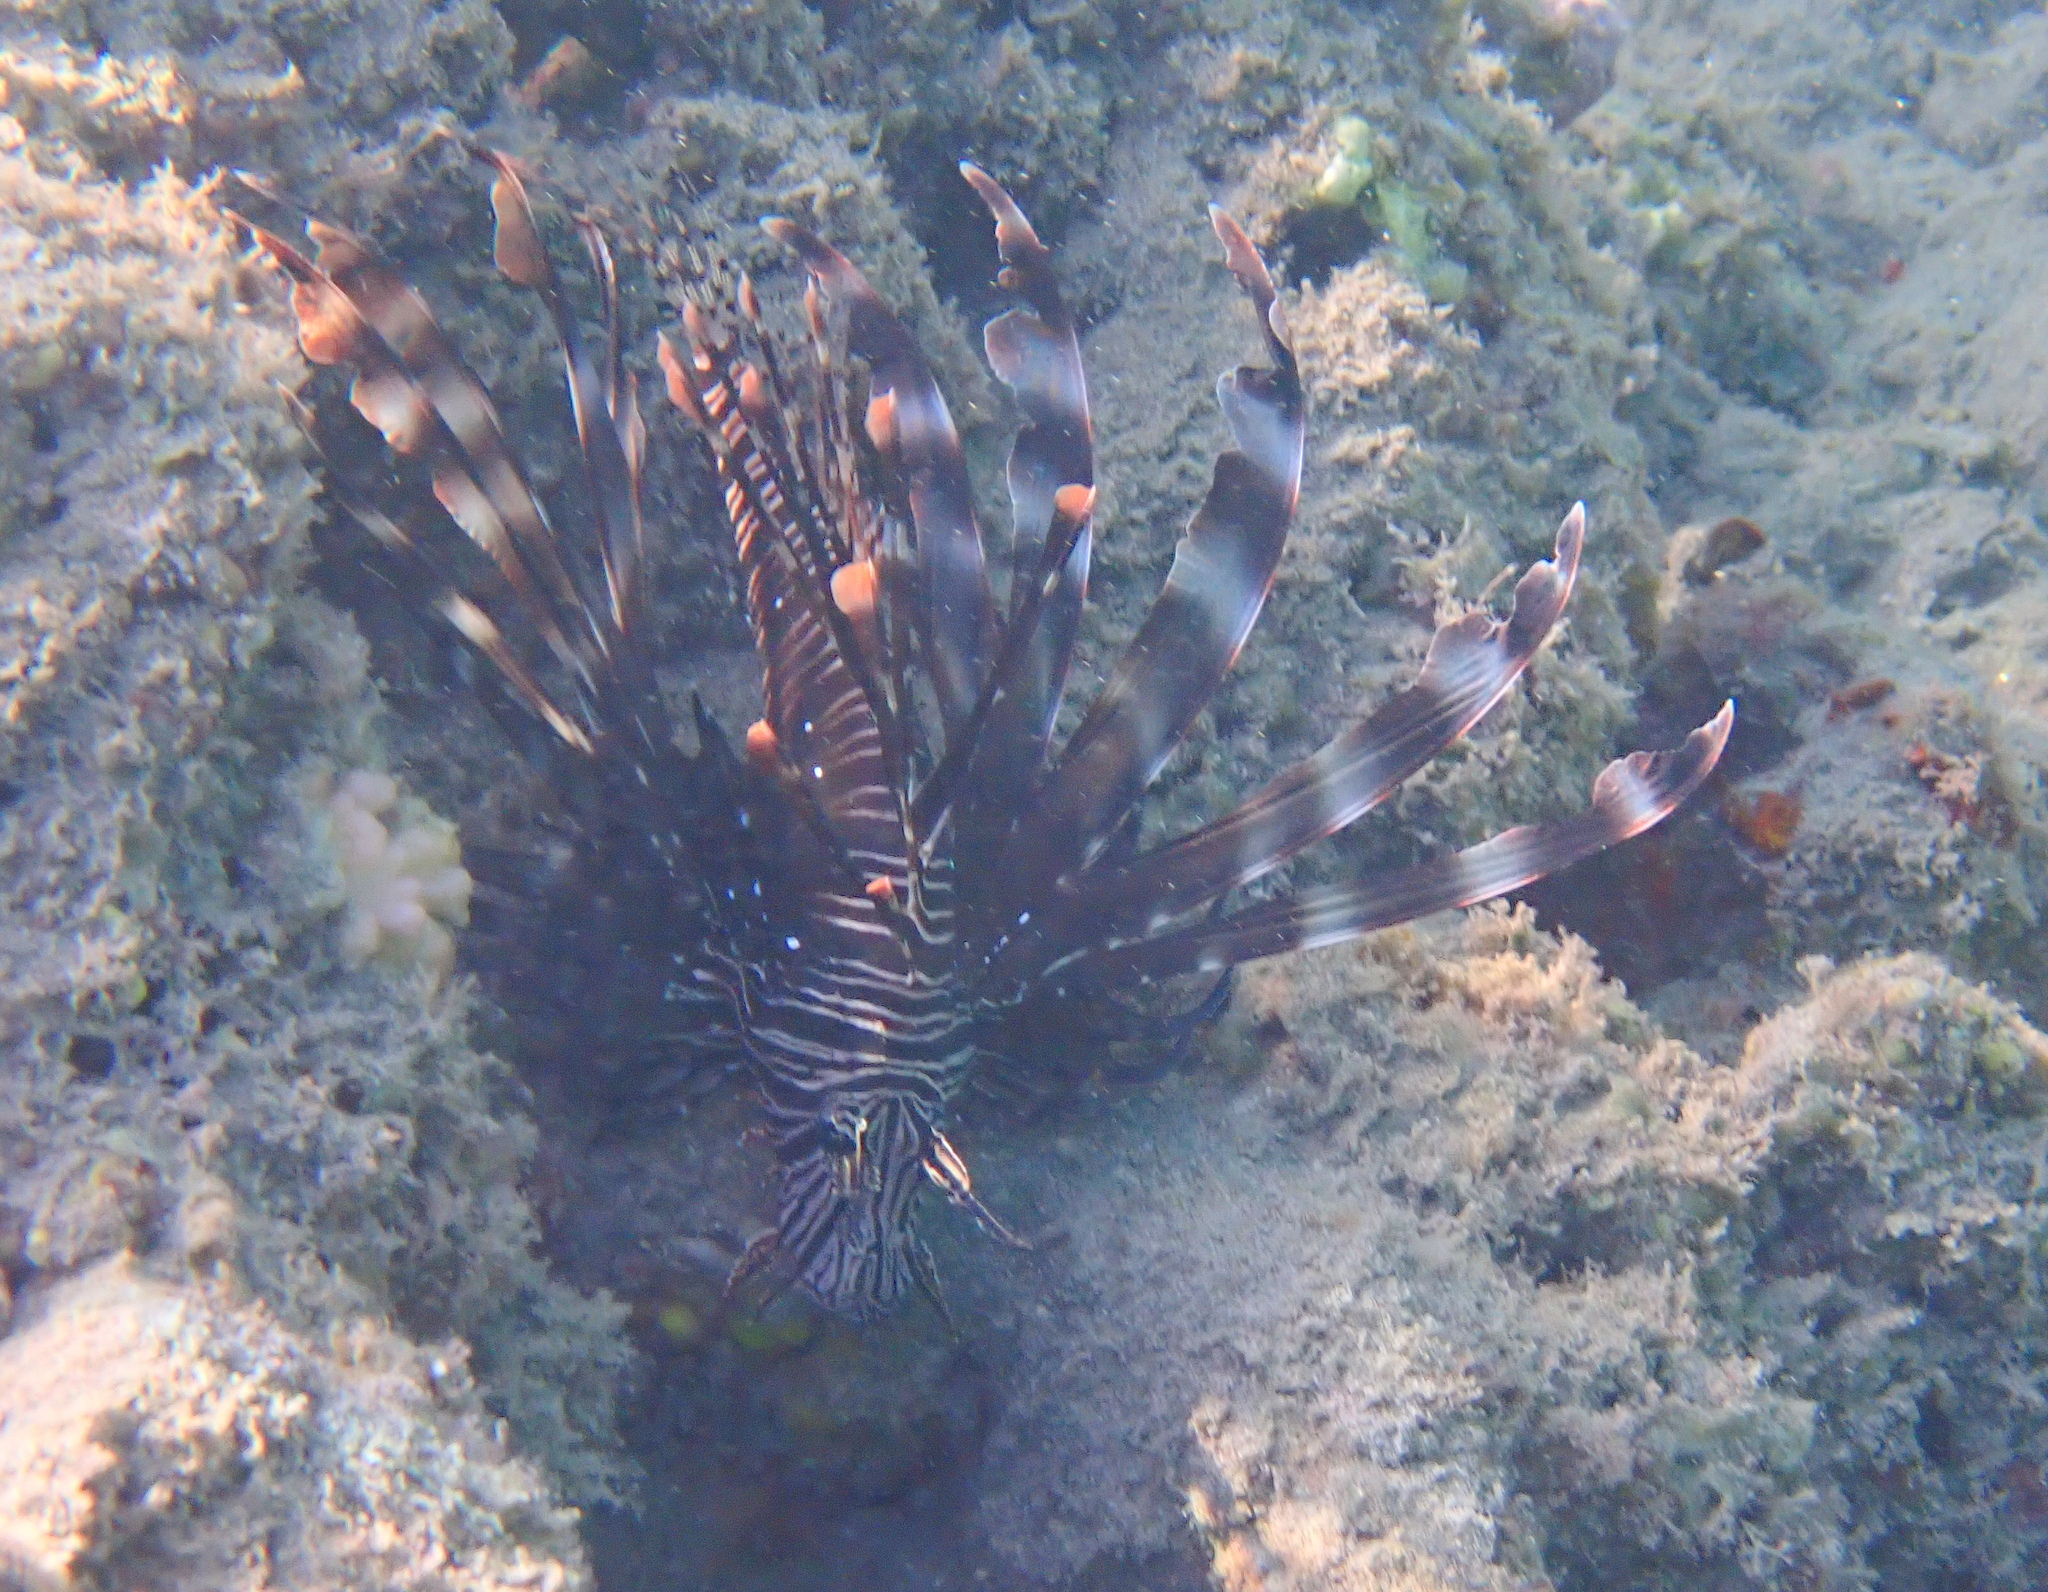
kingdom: Animalia
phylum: Chordata
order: Scorpaeniformes
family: Scorpaenidae
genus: Pterois
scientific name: Pterois miles
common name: Devil firefish
